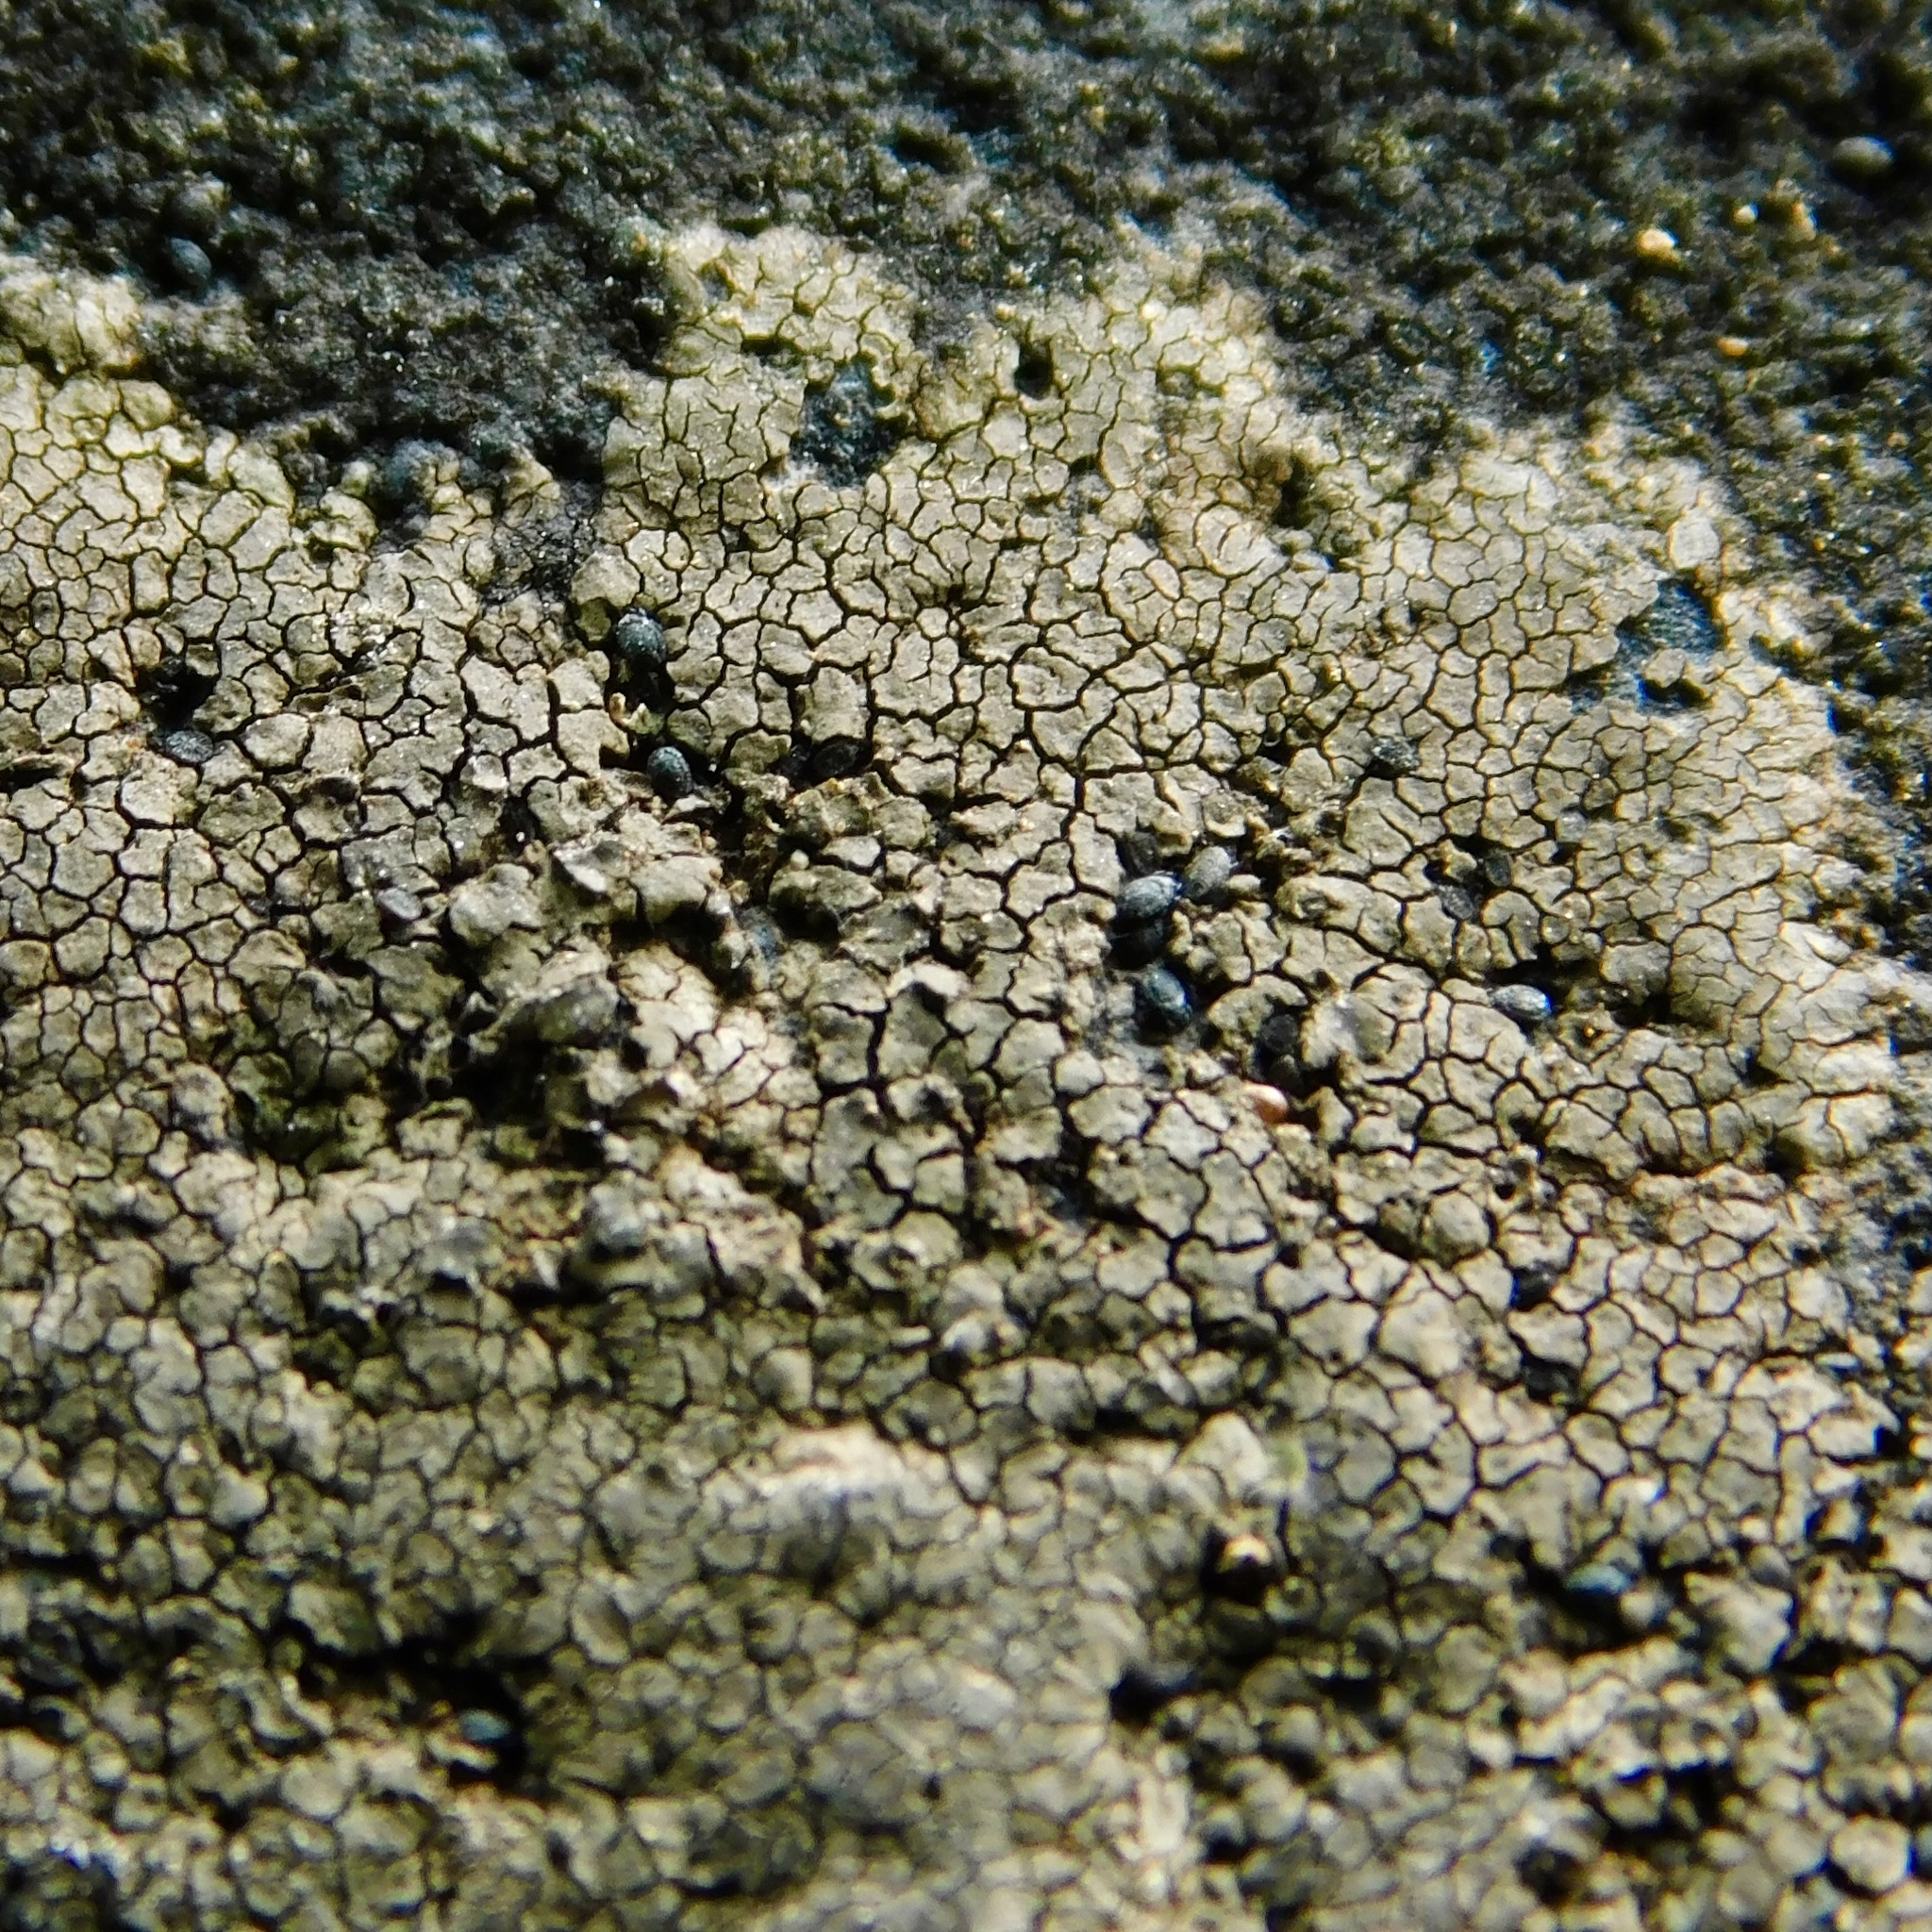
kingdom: Fungi
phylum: Ascomycota
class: Lecanoromycetes
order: Peltigerales
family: Placynthiaceae
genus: Placynthium
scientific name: Placynthium nigrum
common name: Blackthread lichen
